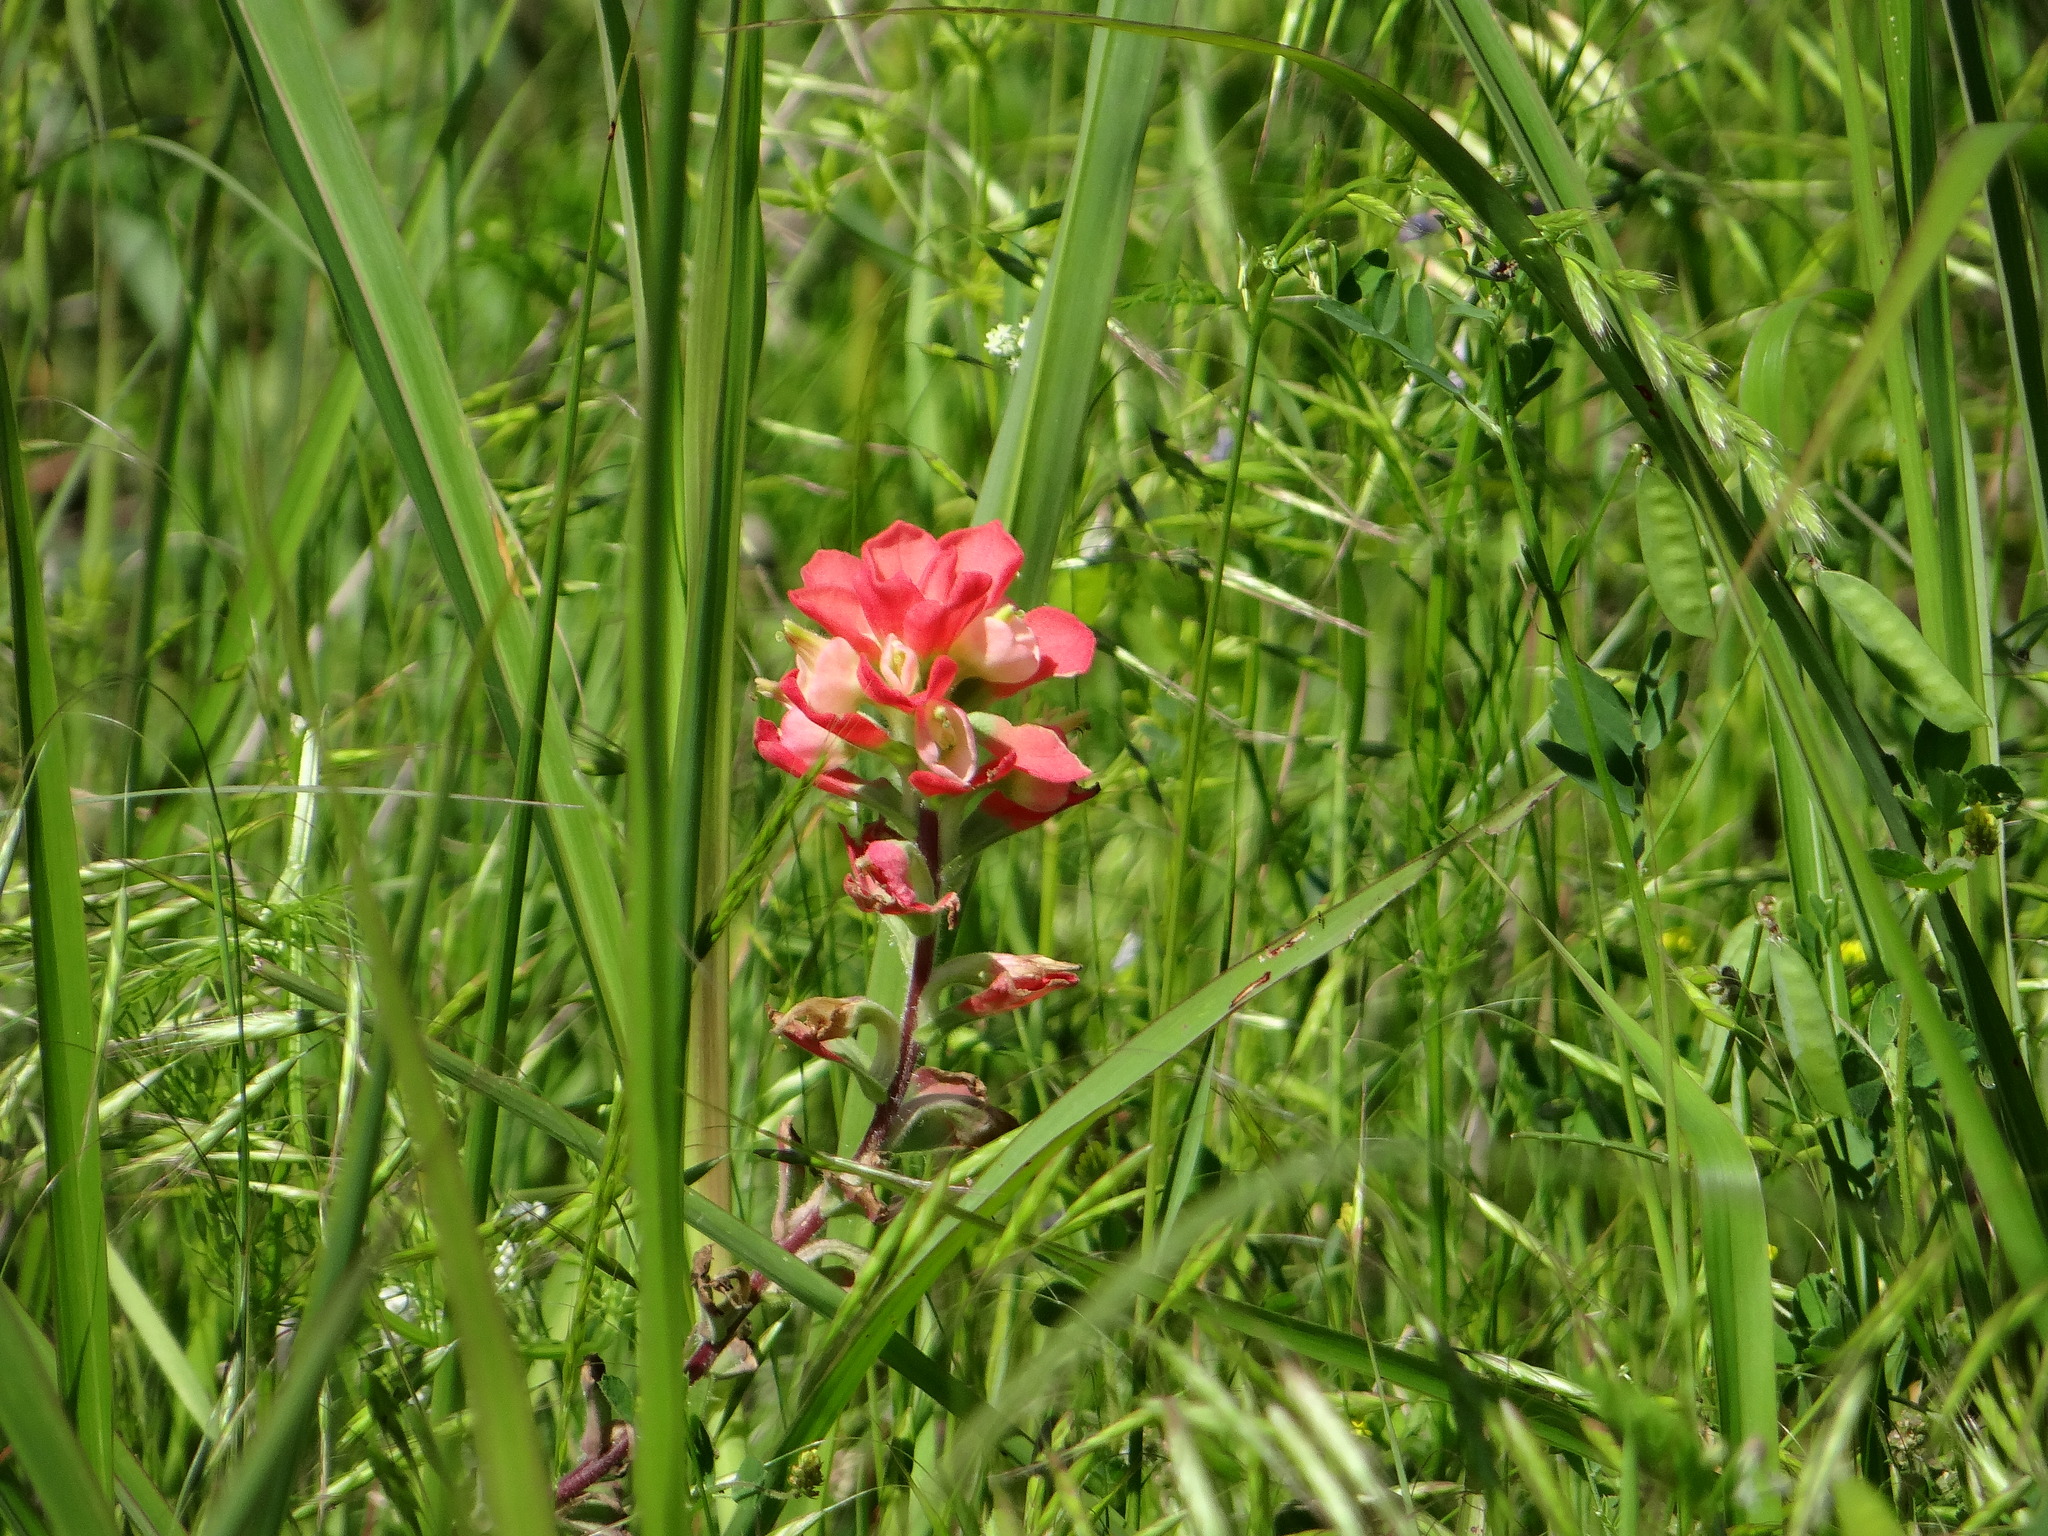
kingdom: Plantae
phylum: Tracheophyta
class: Magnoliopsida
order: Lamiales
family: Orobanchaceae
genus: Castilleja
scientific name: Castilleja indivisa
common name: Texas paintbrush
